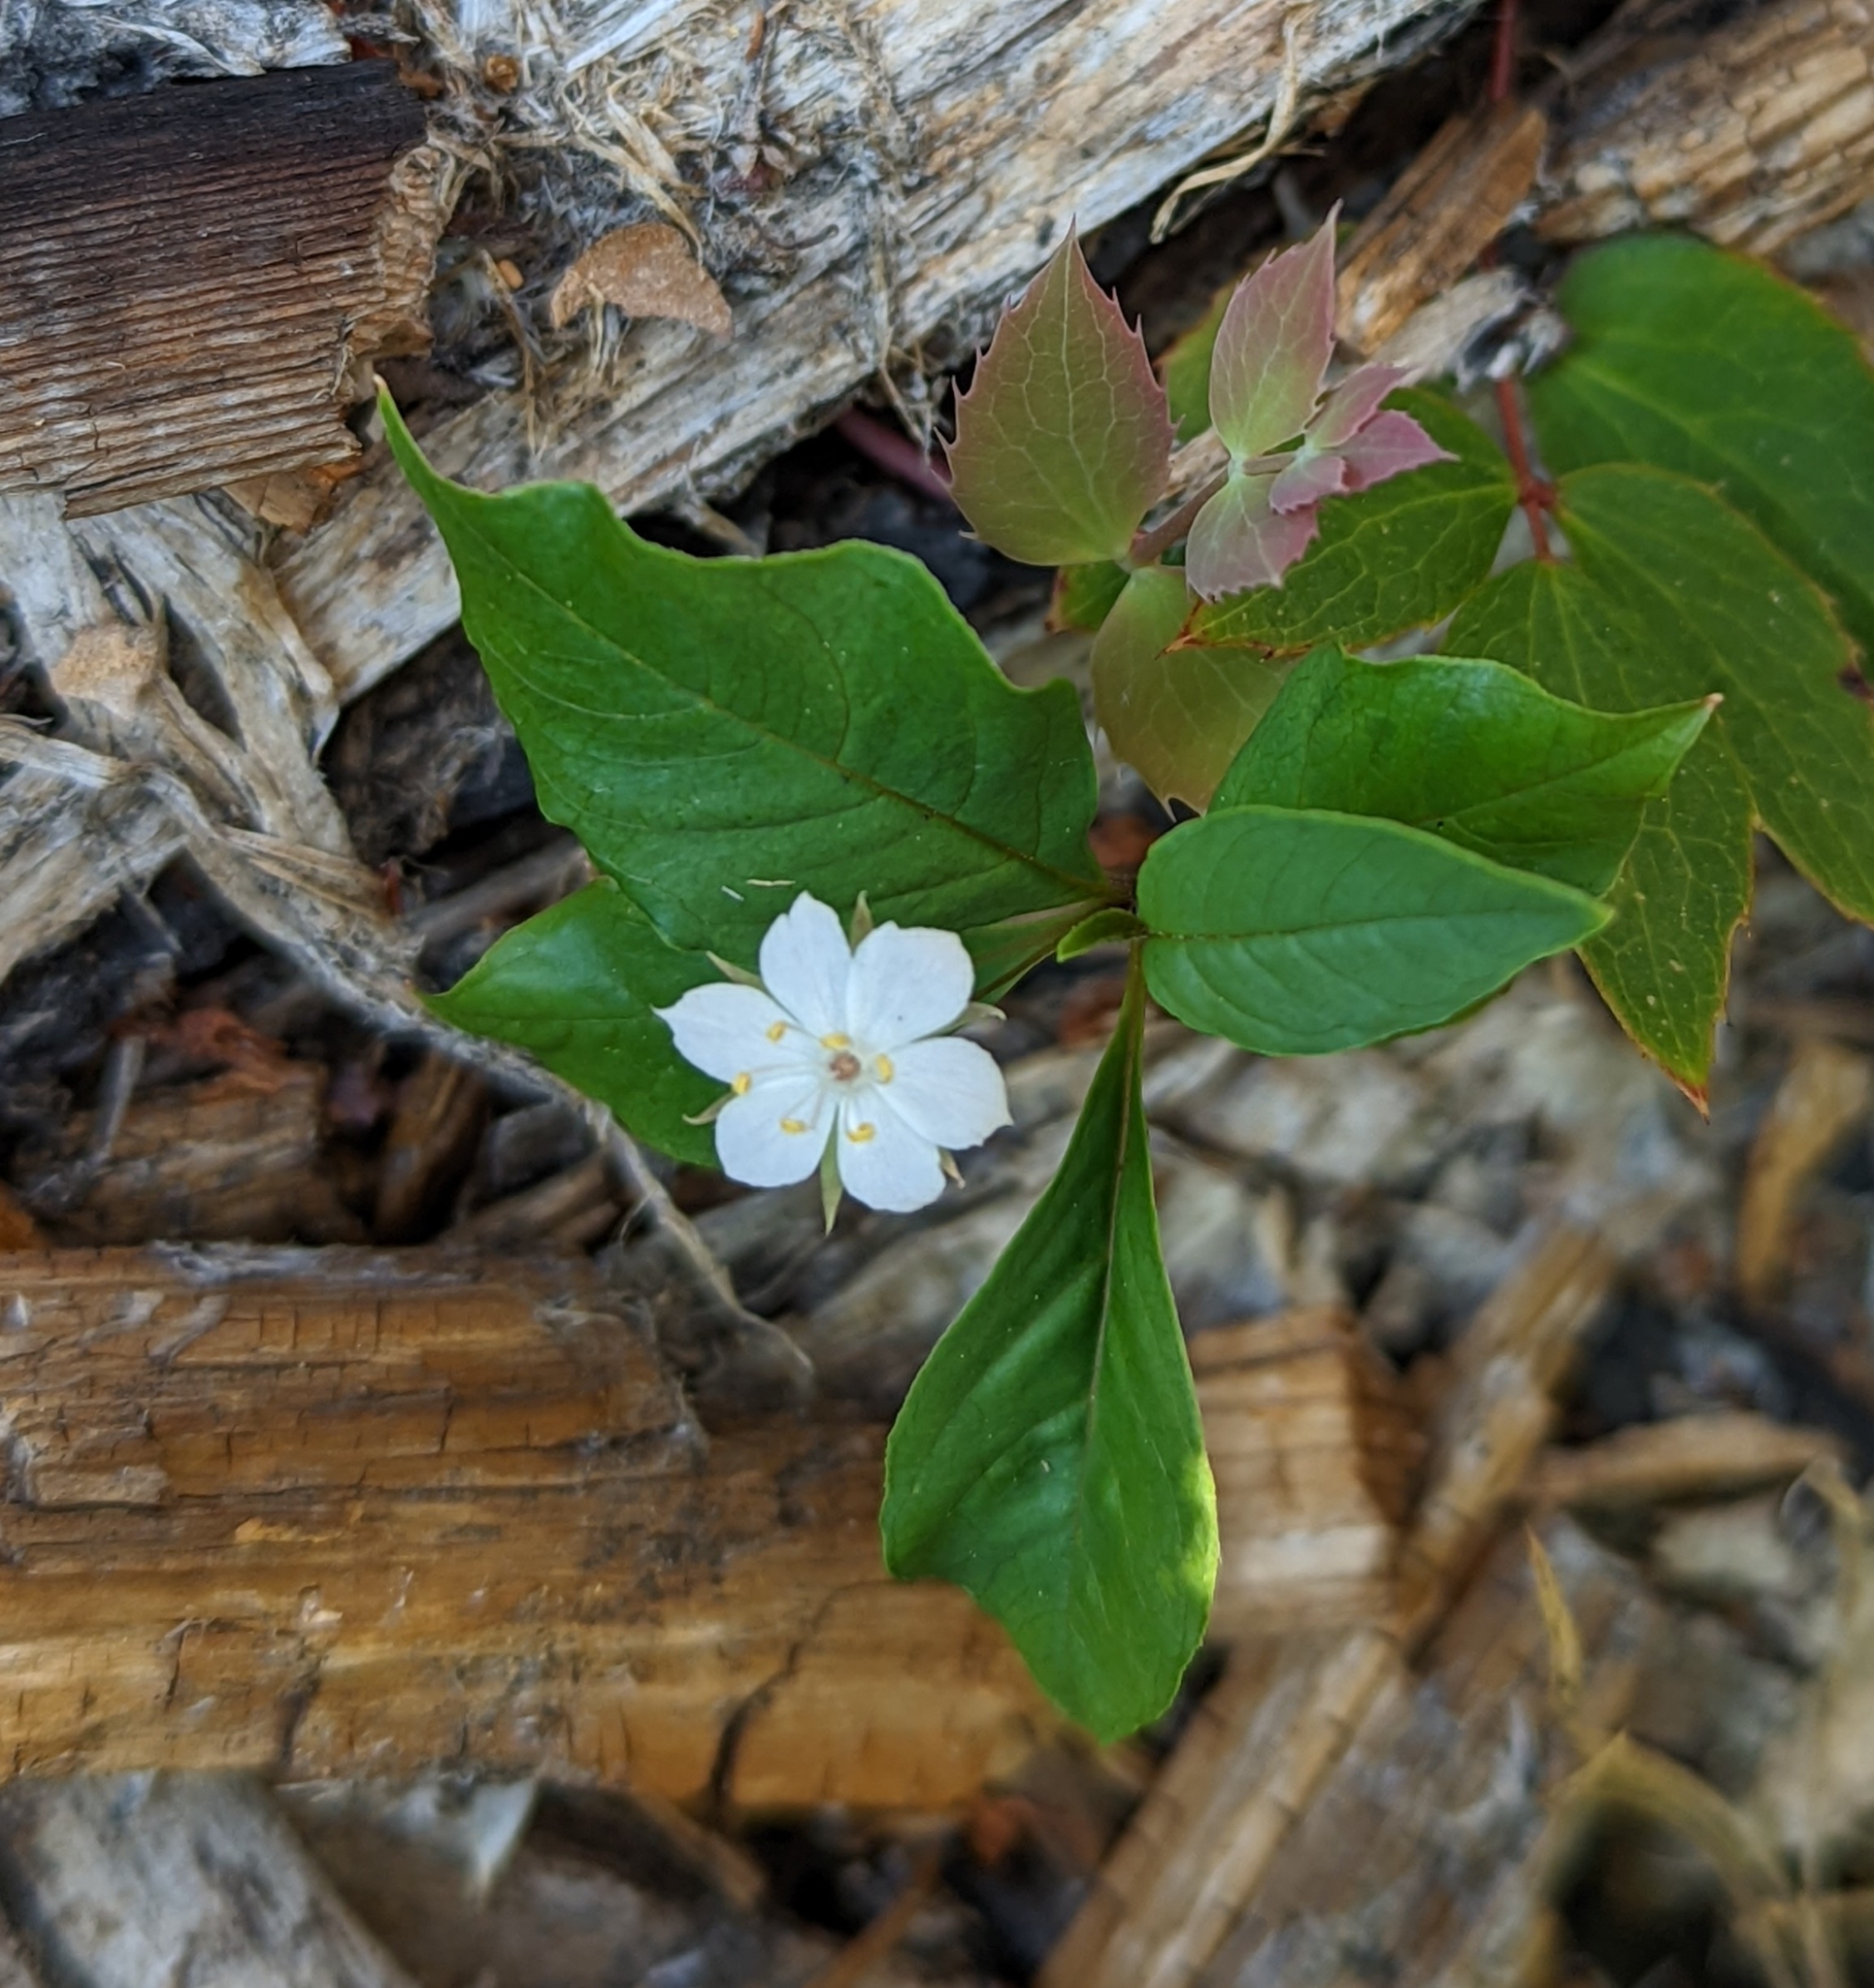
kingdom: Plantae
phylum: Tracheophyta
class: Magnoliopsida
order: Ericales
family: Primulaceae
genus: Lysimachia
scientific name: Lysimachia latifolia
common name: Pacific starflower
